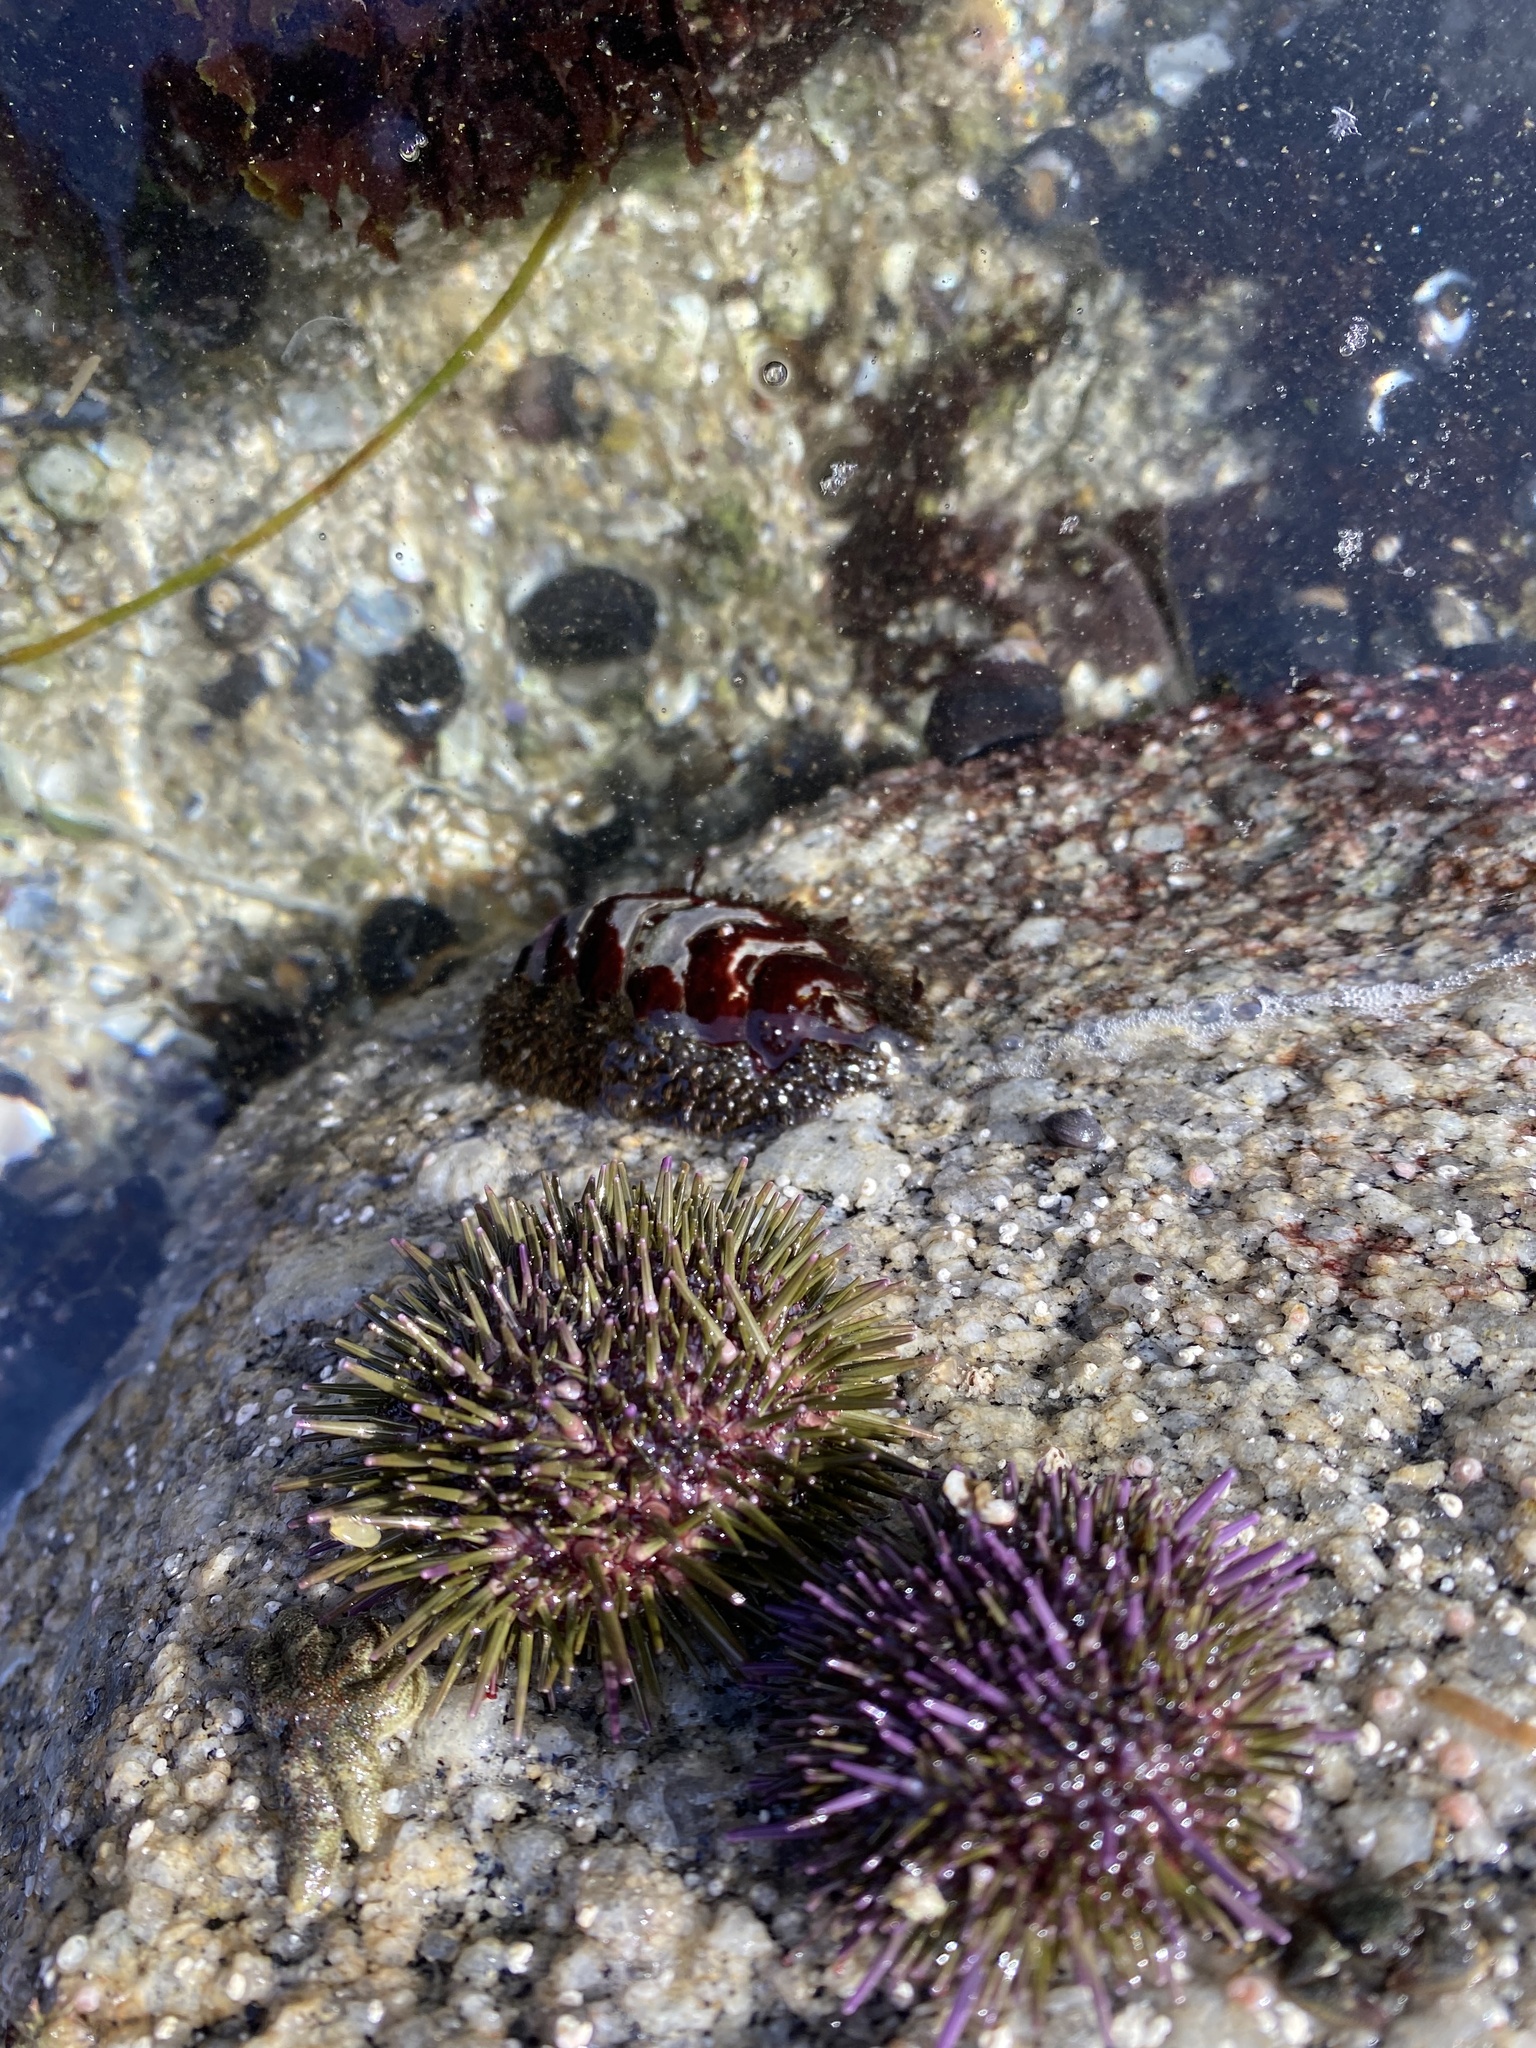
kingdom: Animalia
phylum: Mollusca
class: Polyplacophora
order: Chitonida
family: Mopaliidae
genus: Mopalia
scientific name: Mopalia muscosa
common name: Mossy chiton
